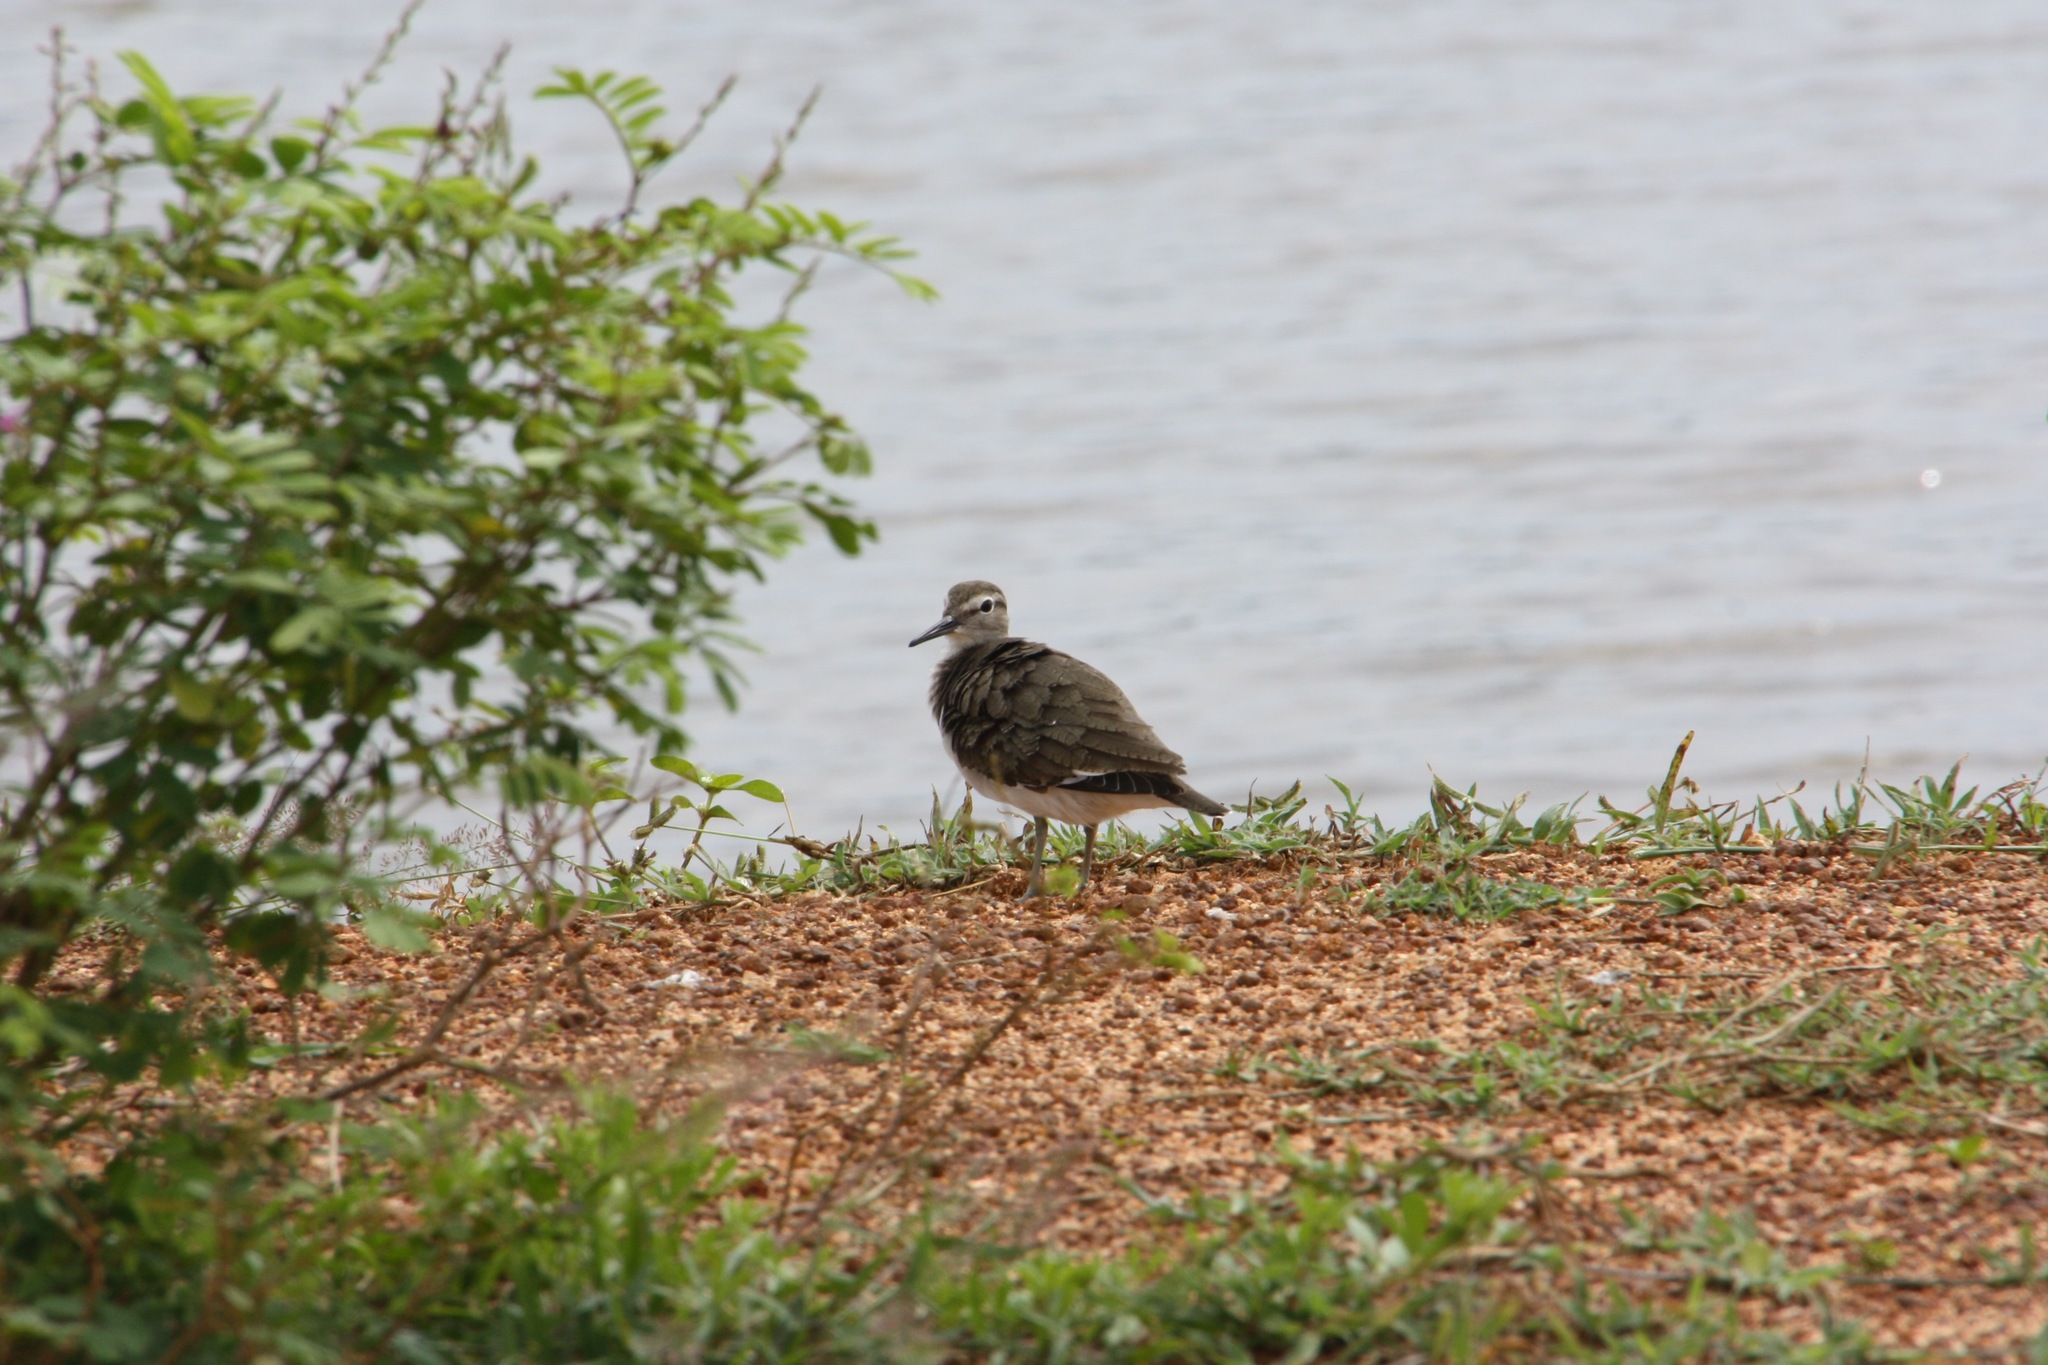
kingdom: Animalia
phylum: Chordata
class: Aves
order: Charadriiformes
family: Scolopacidae
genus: Actitis
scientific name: Actitis hypoleucos
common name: Common sandpiper
